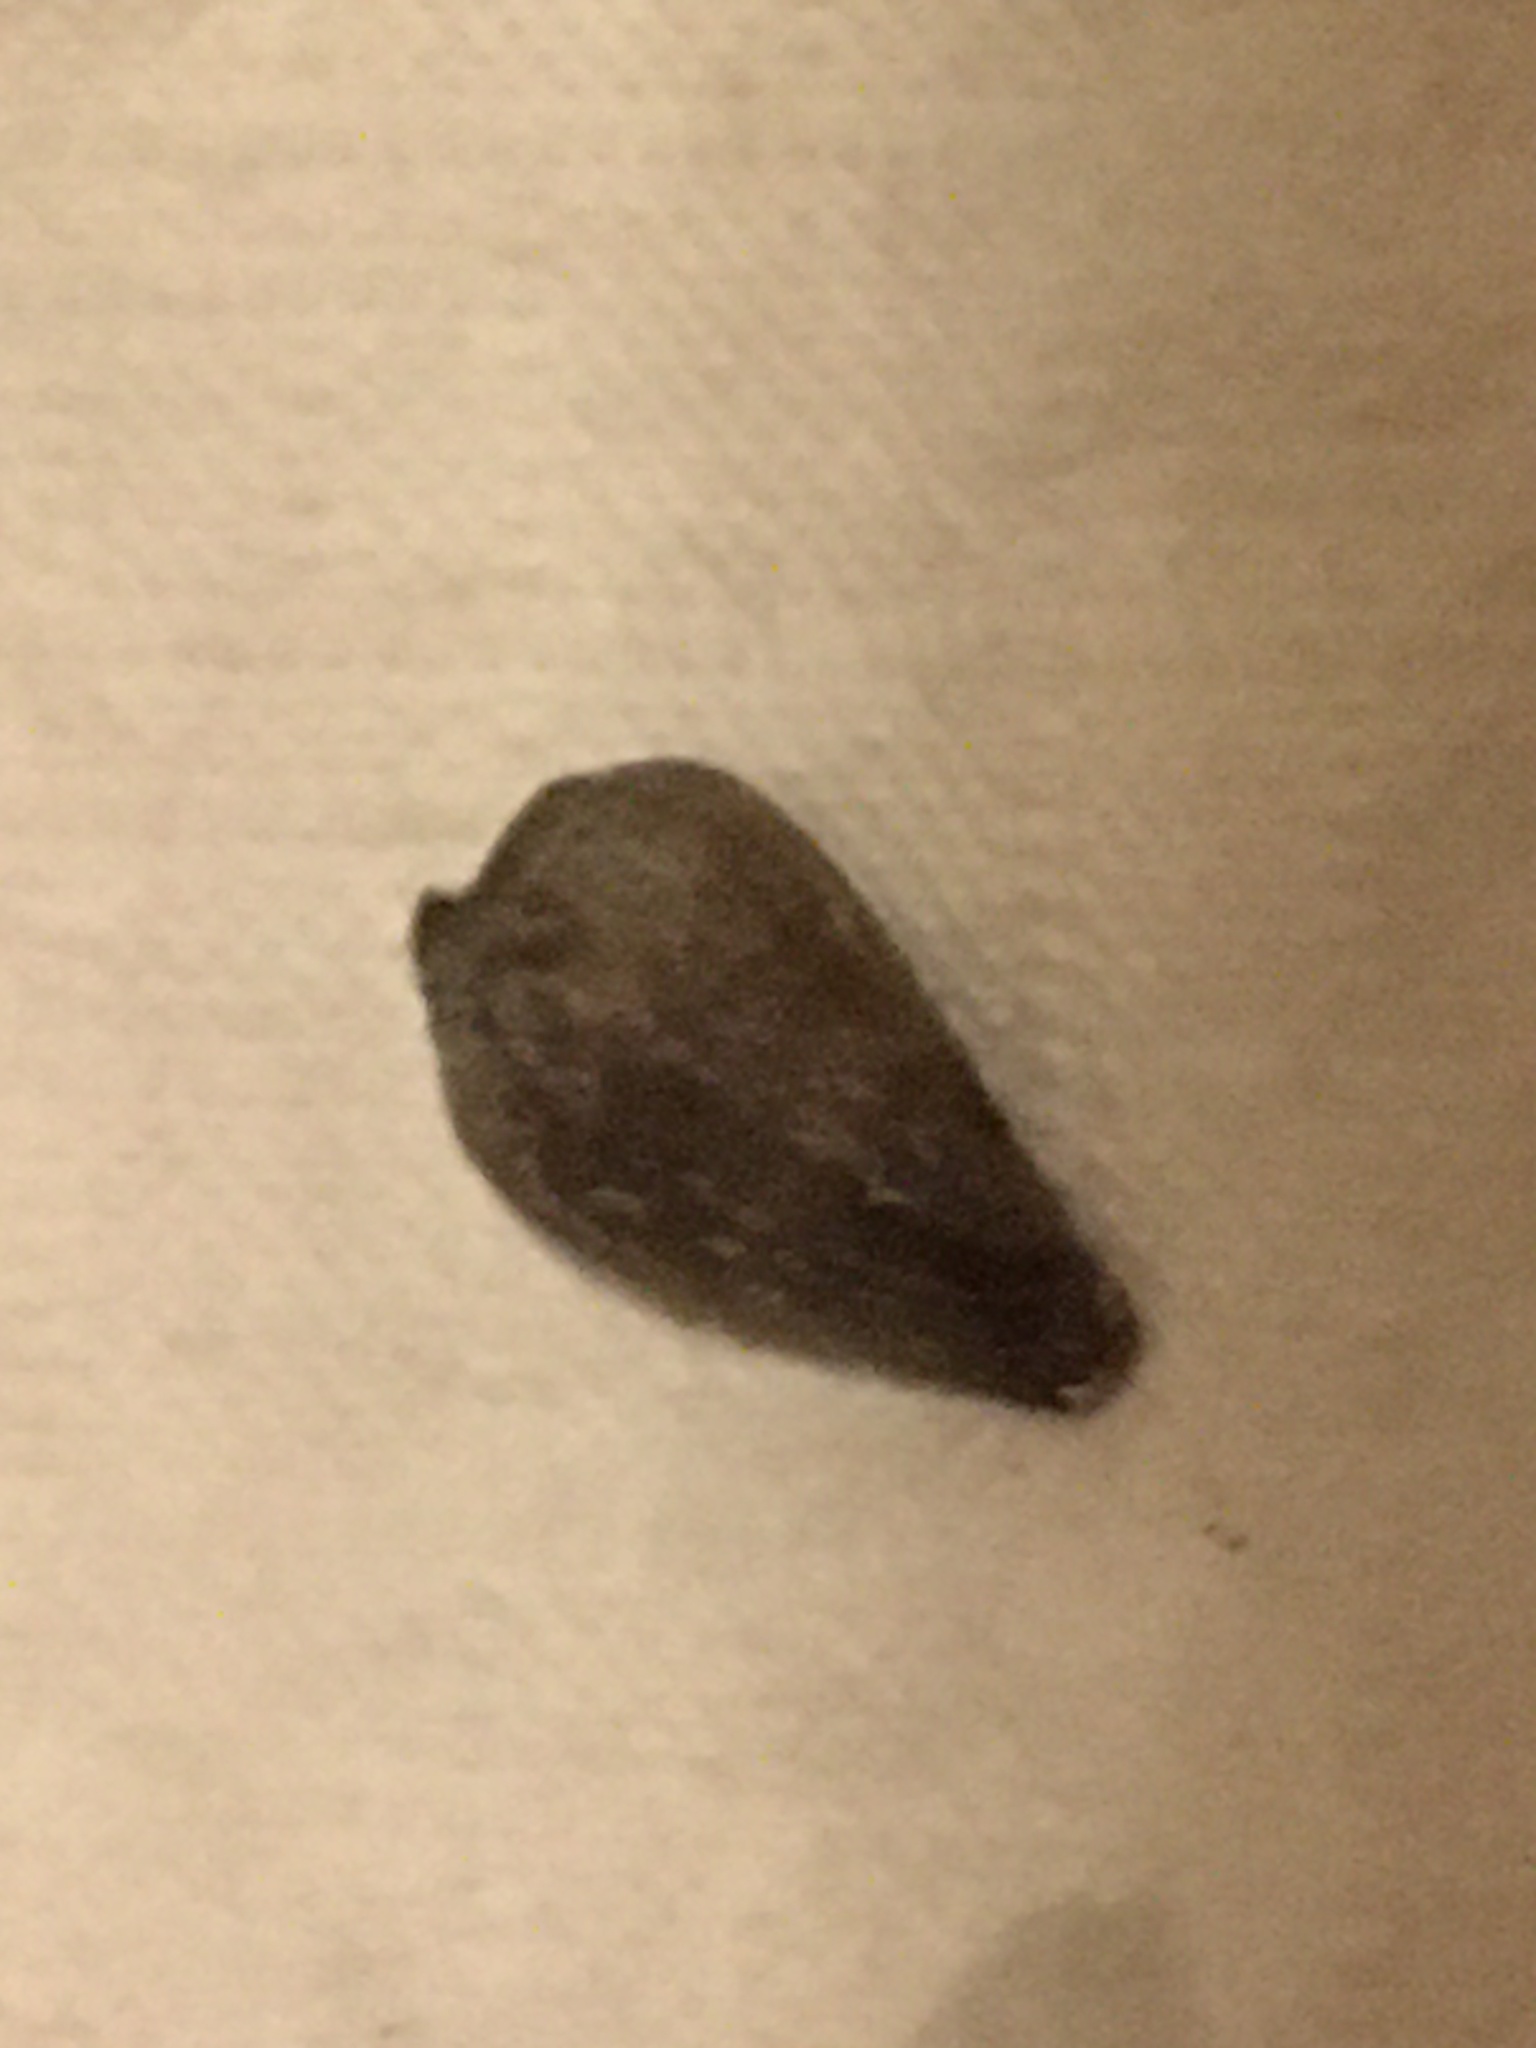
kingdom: Animalia
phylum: Mollusca
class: Gastropoda
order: Neogastropoda
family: Conidae
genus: Californiconus
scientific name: Californiconus californicus
